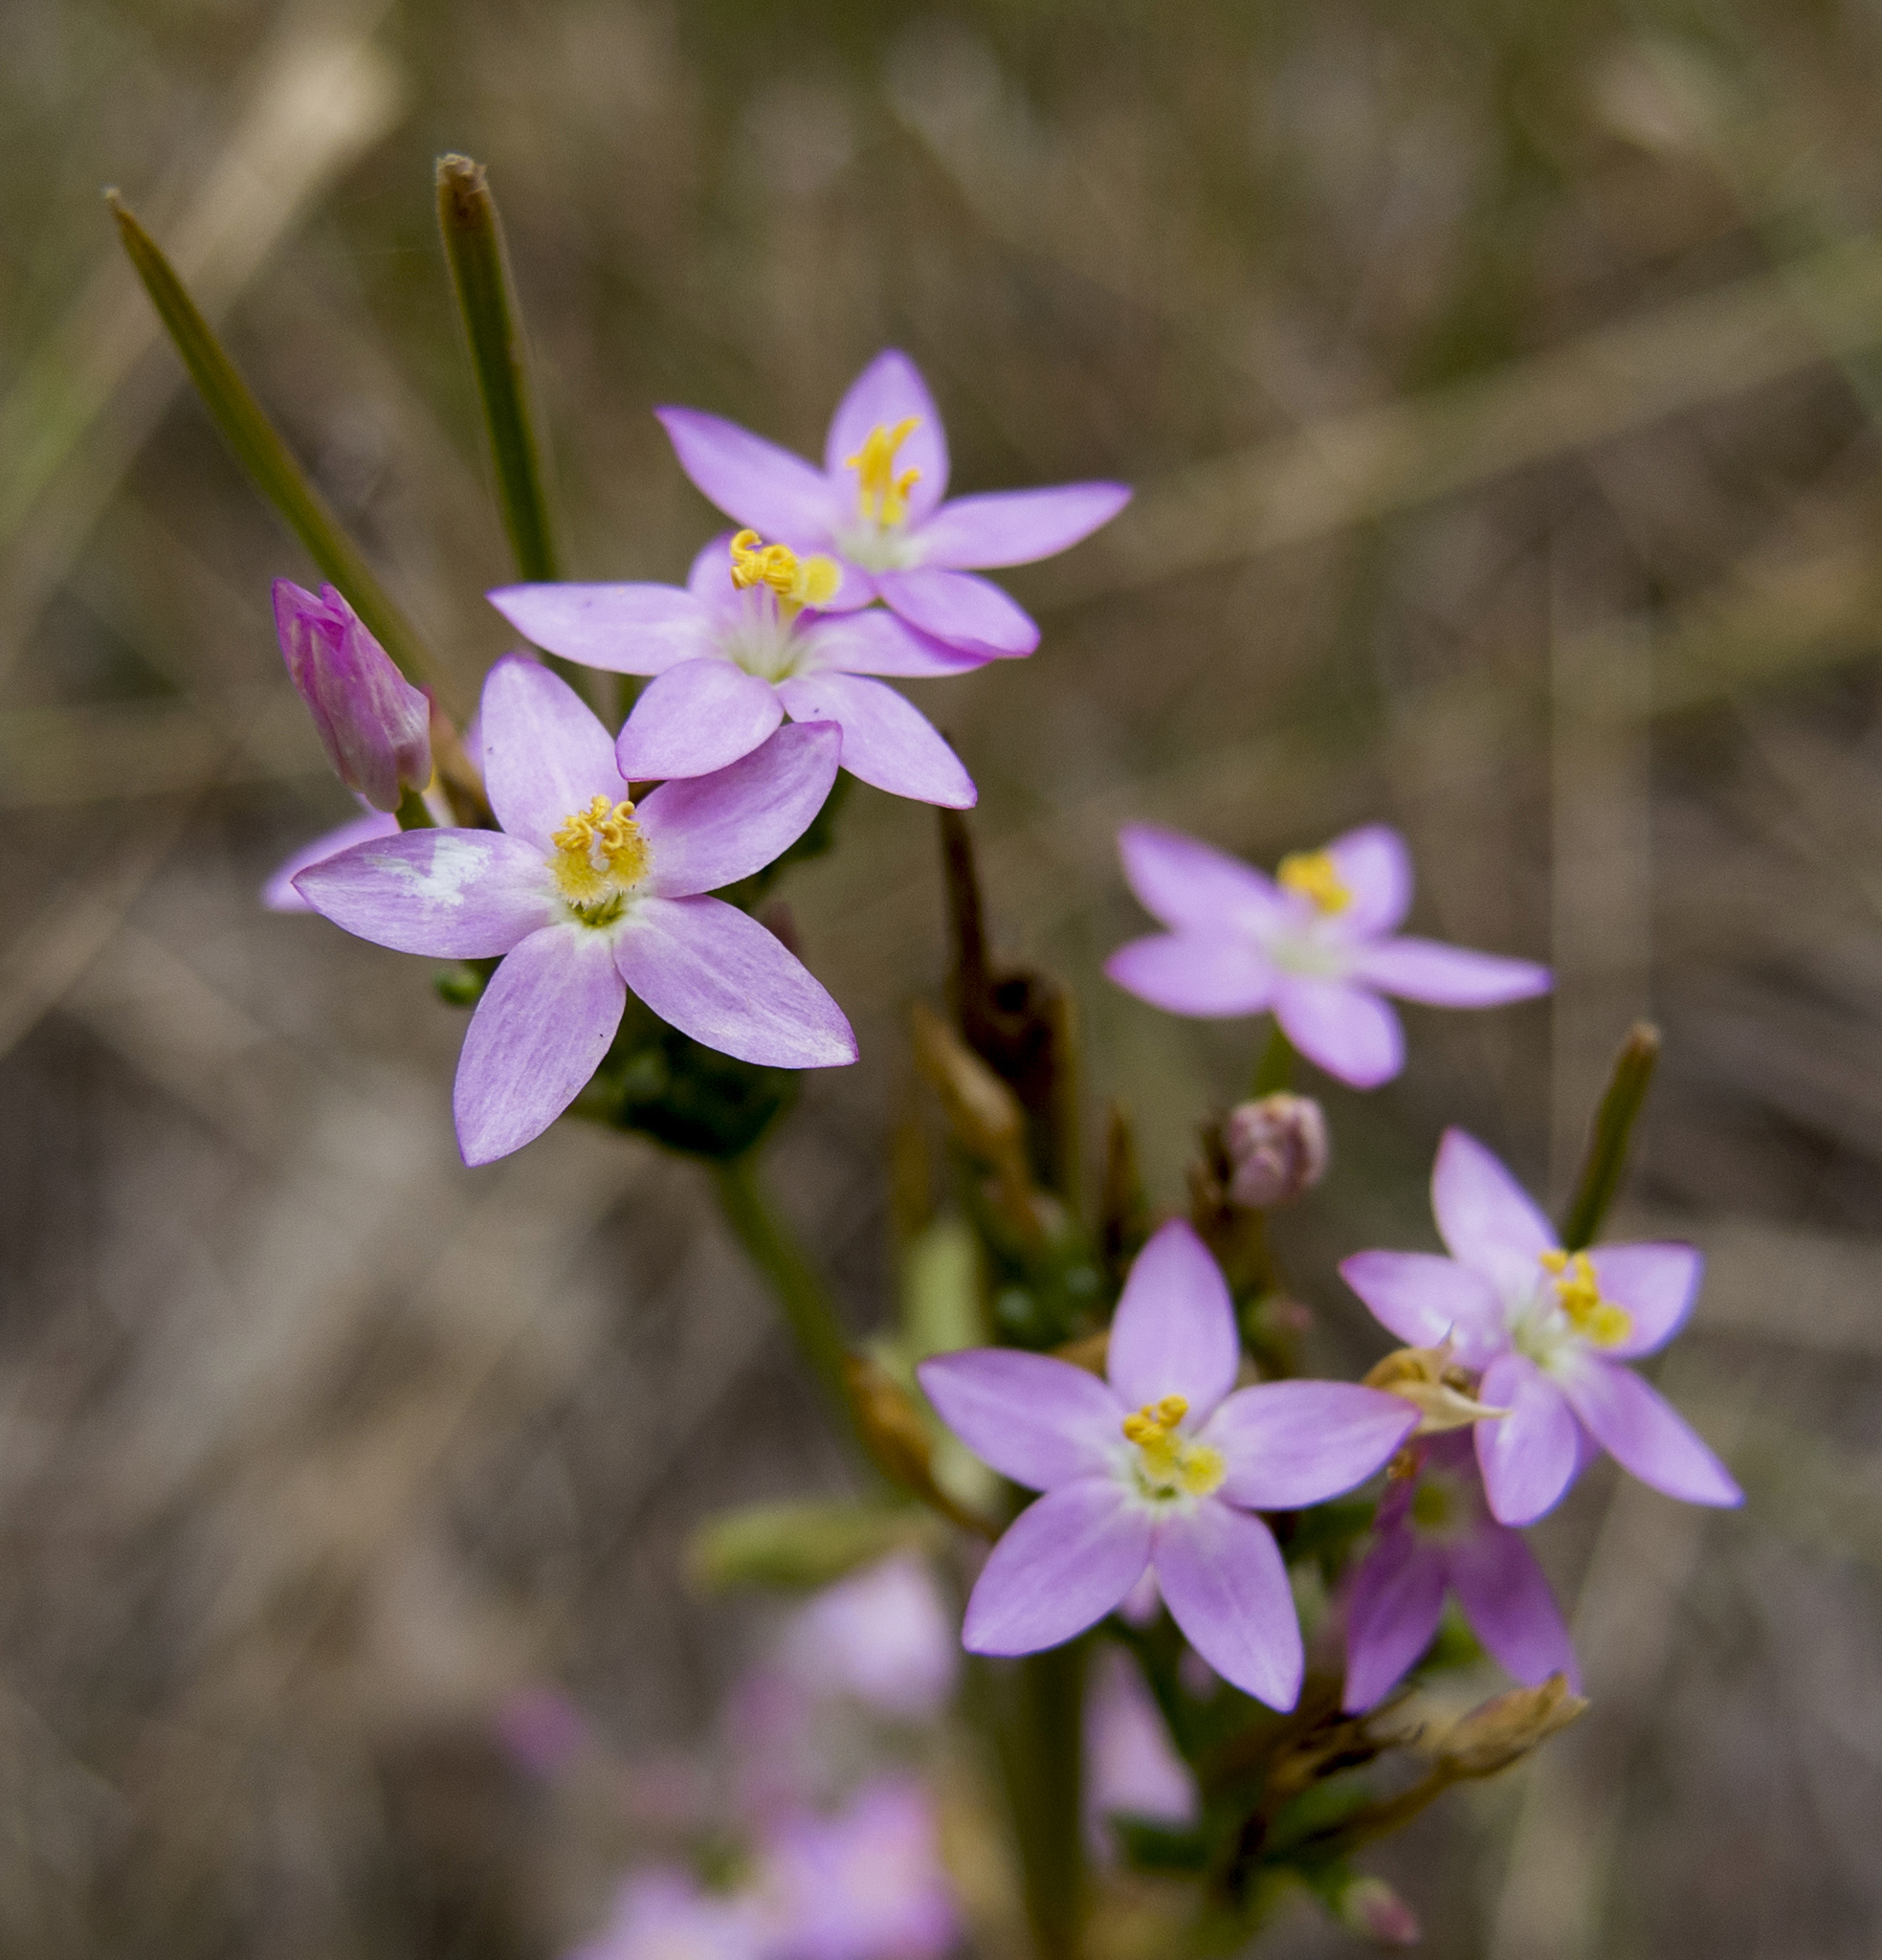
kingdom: Plantae
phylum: Tracheophyta
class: Magnoliopsida
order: Gentianales
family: Gentianaceae
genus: Centaurium
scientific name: Centaurium erythraea
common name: Common centaury
